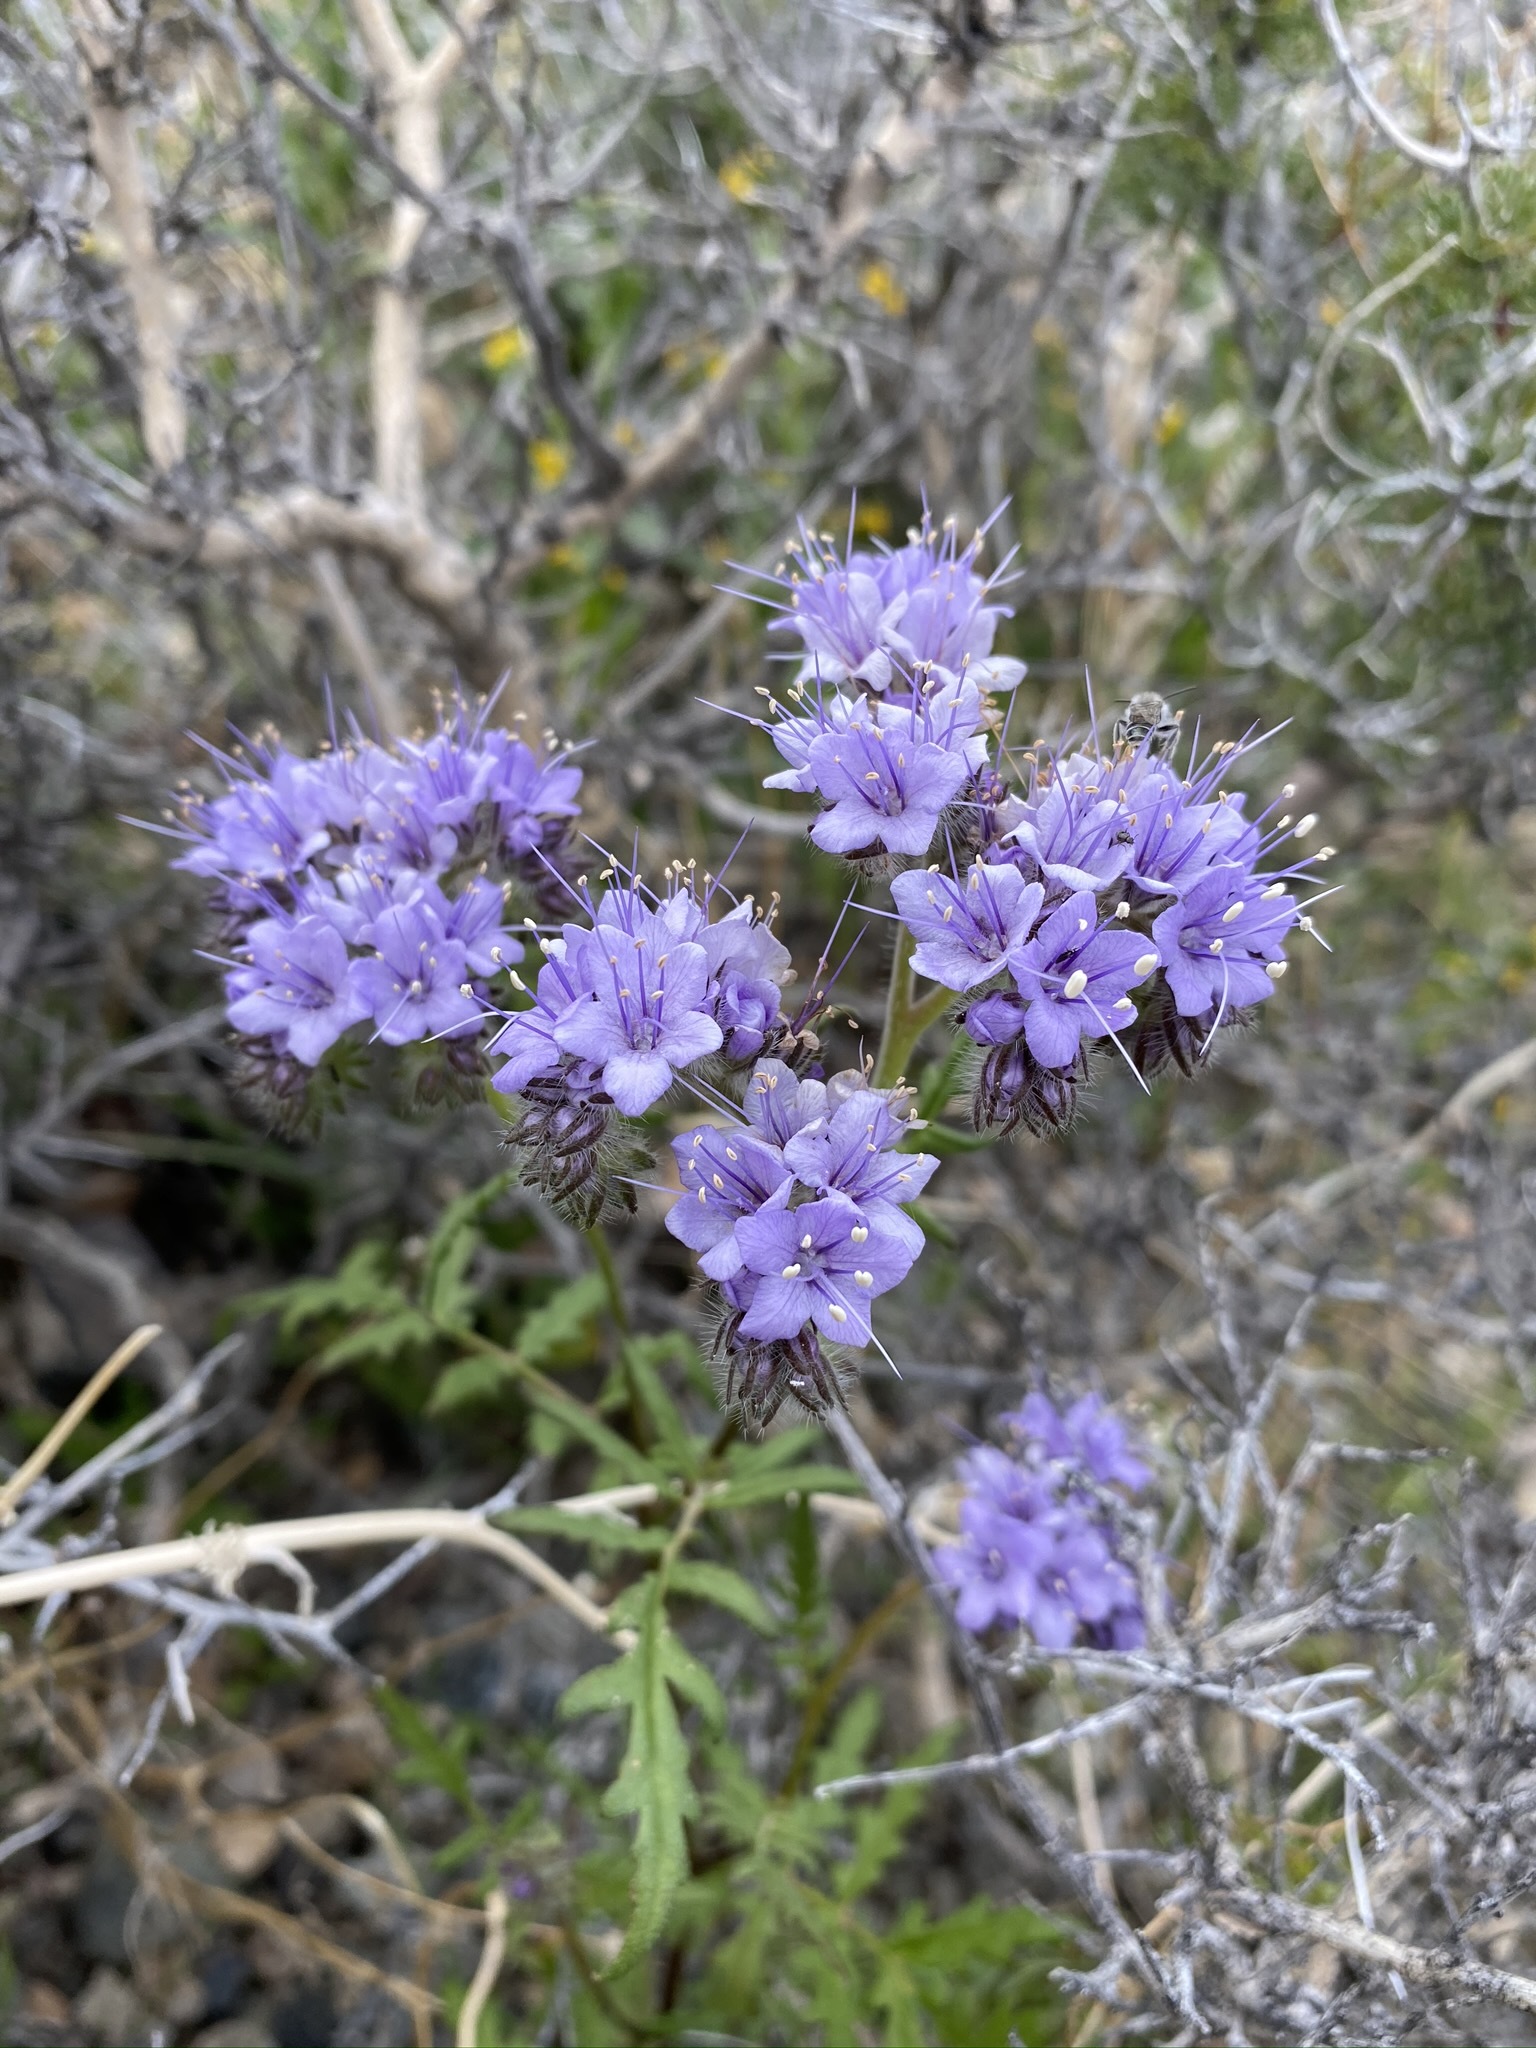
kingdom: Plantae
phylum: Tracheophyta
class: Magnoliopsida
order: Boraginales
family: Hydrophyllaceae
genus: Phacelia
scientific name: Phacelia tanacetifolia
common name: Phacelia
